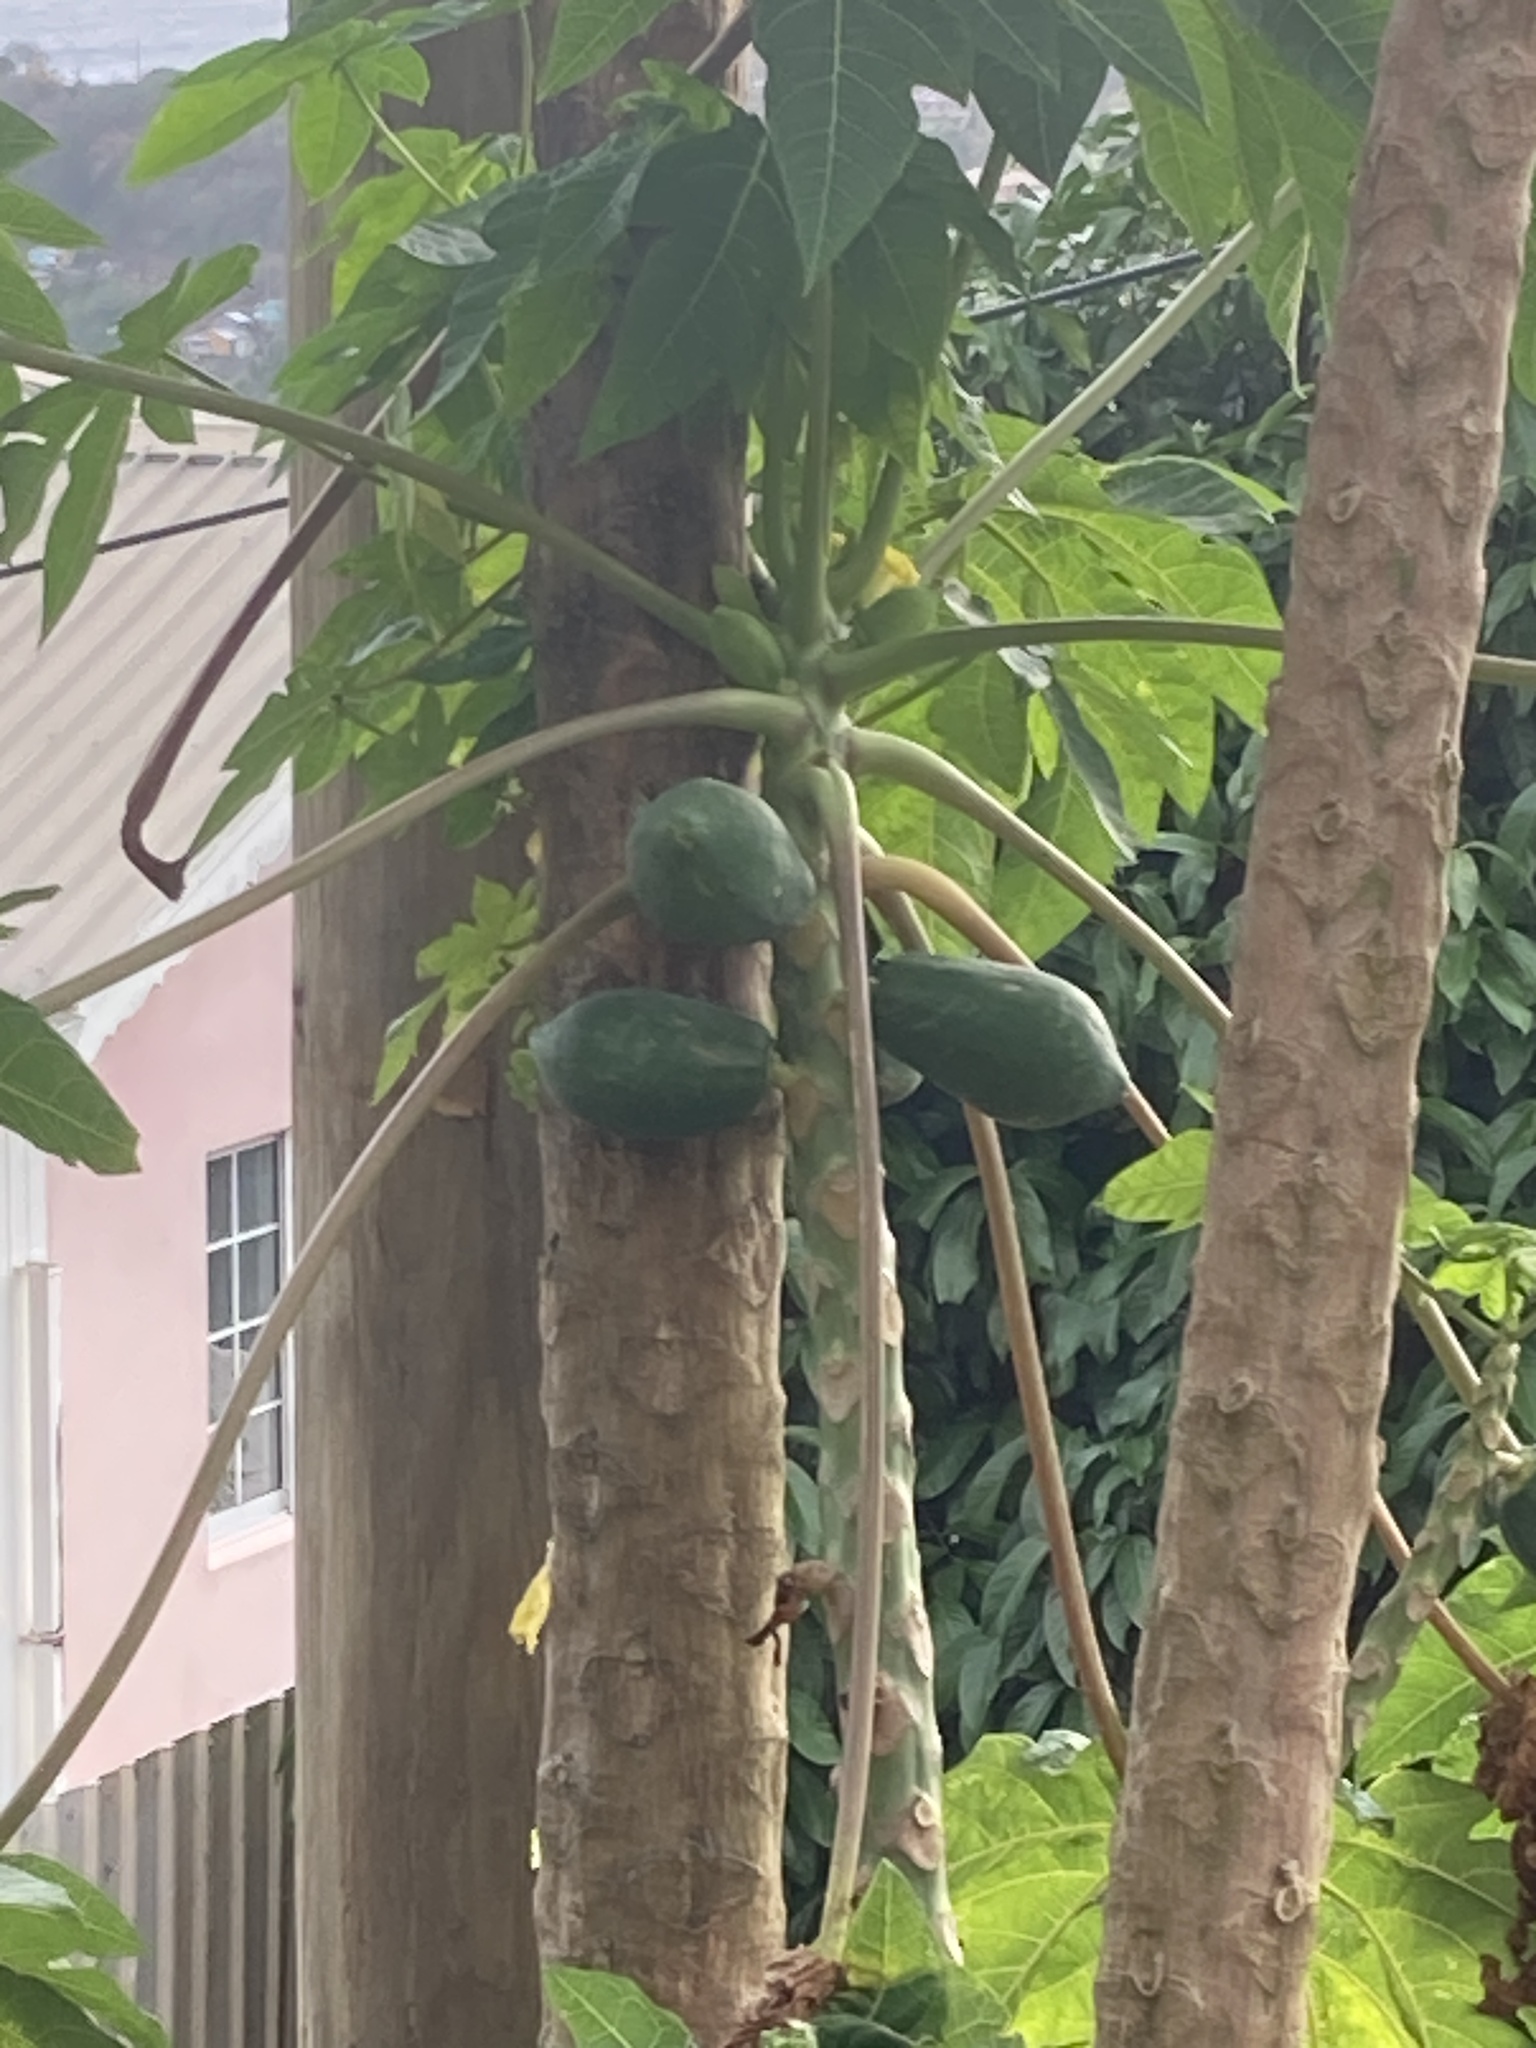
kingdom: Plantae
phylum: Tracheophyta
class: Magnoliopsida
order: Brassicales
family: Caricaceae
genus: Carica
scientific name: Carica papaya
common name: Papaya
